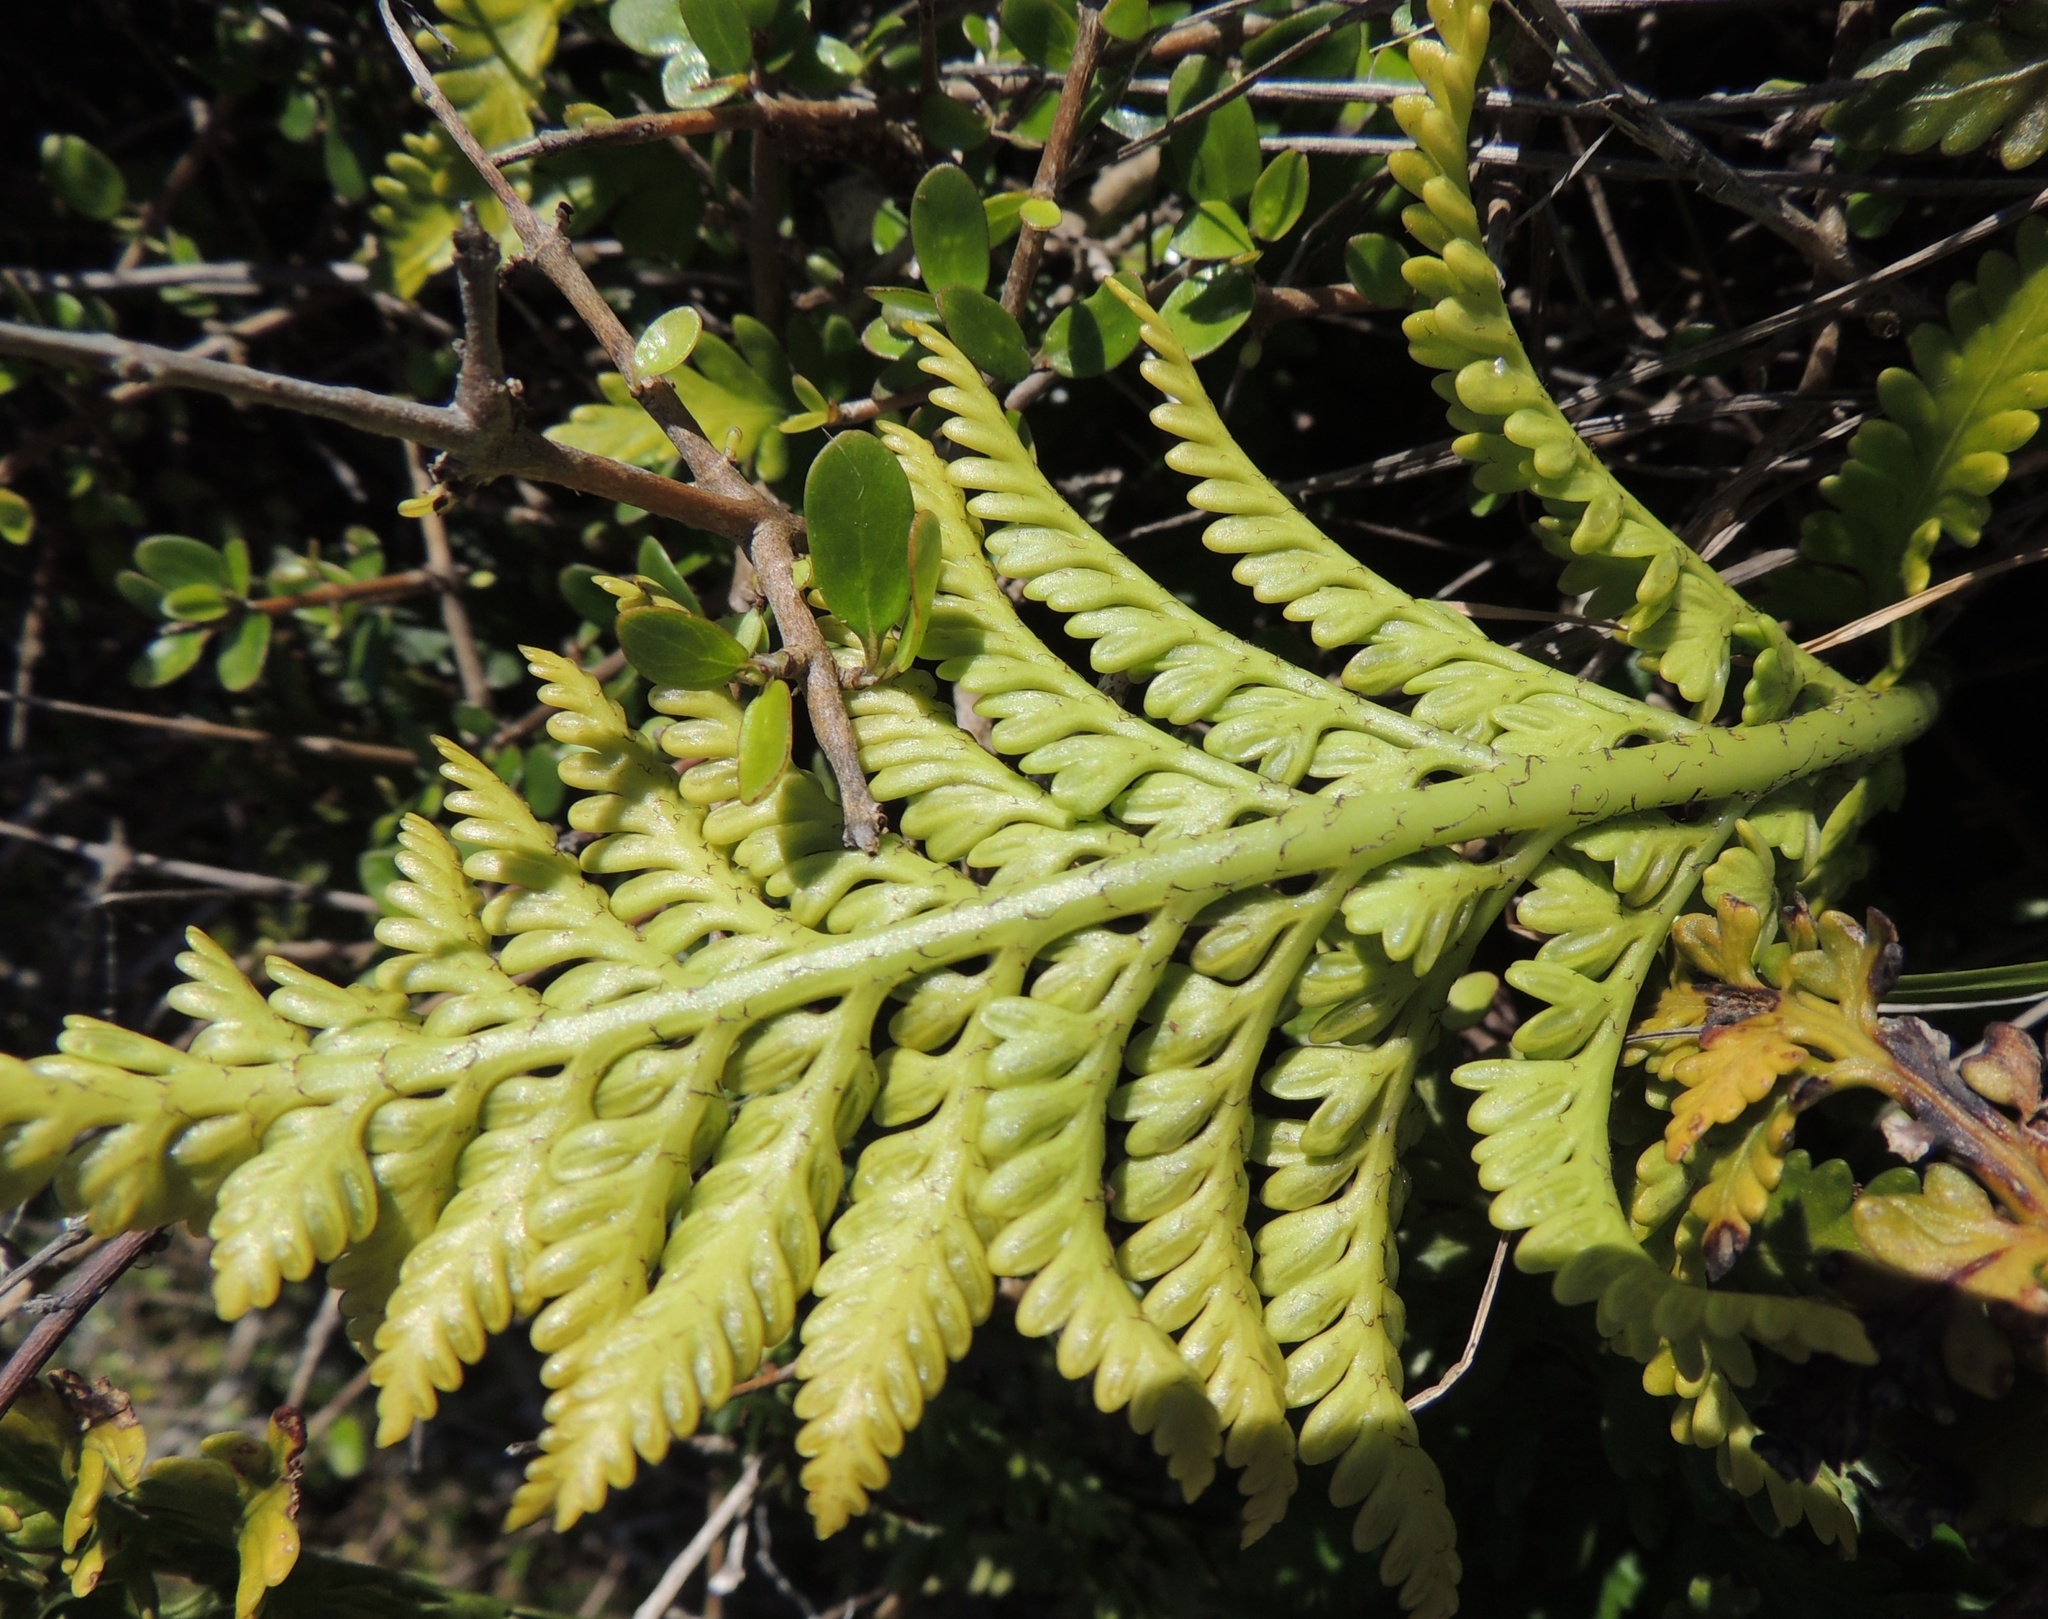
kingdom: Plantae
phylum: Tracheophyta
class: Polypodiopsida
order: Polypodiales
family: Aspleniaceae
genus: Asplenium
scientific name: Asplenium appendiculatum
